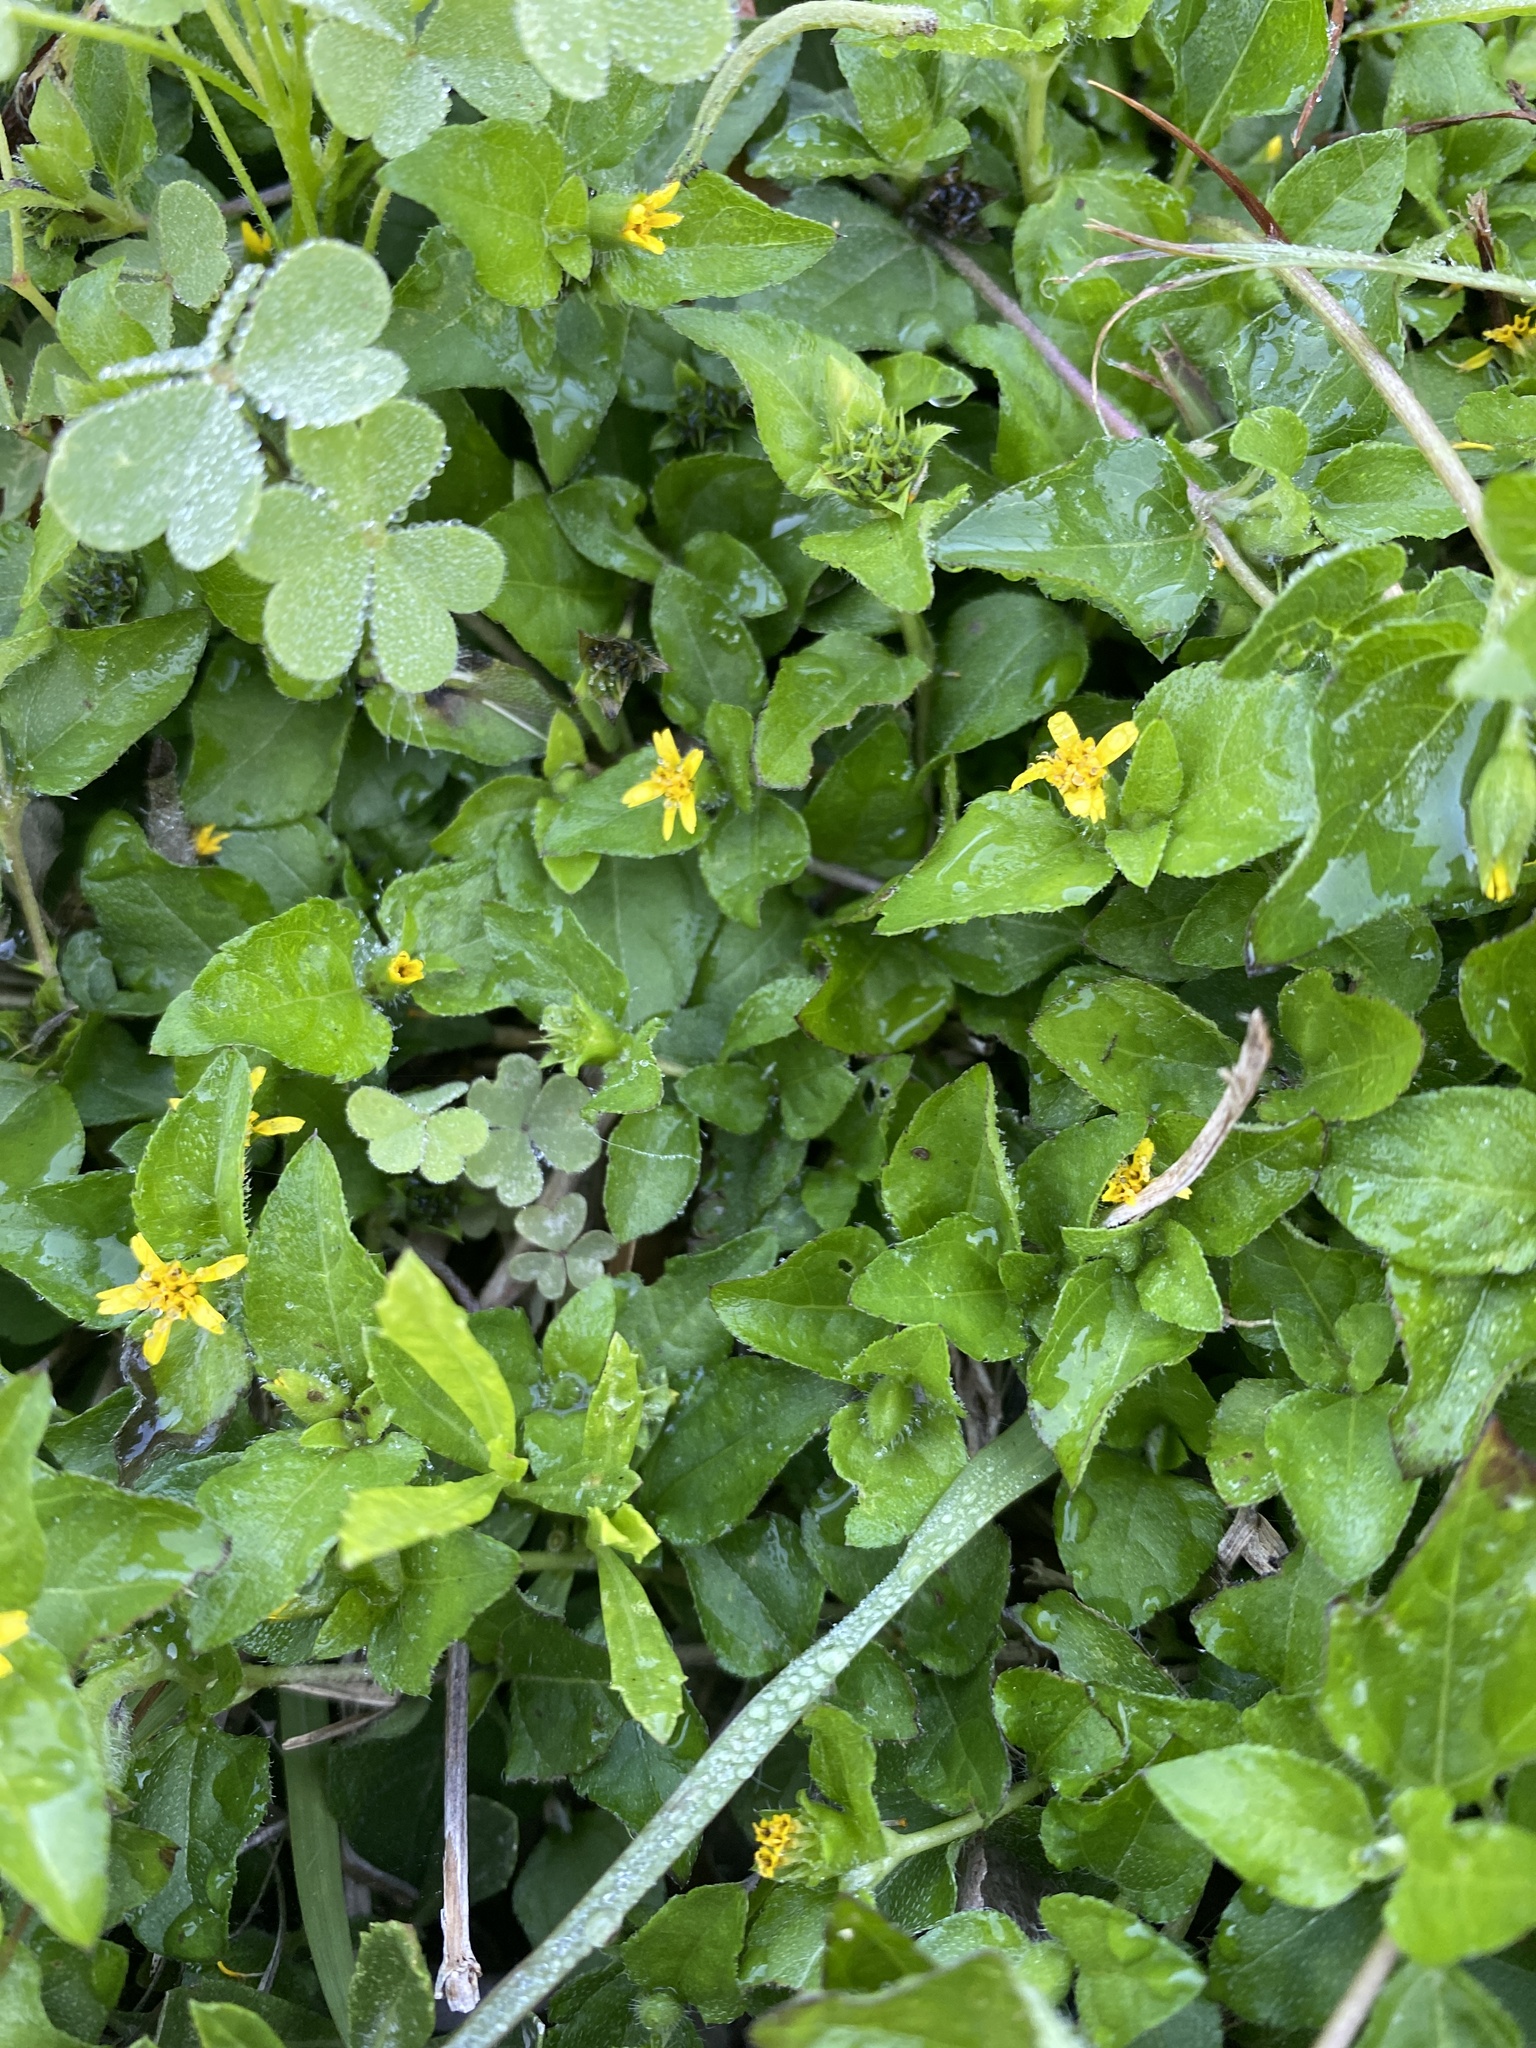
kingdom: Plantae
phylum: Tracheophyta
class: Magnoliopsida
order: Asterales
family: Asteraceae
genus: Calyptocarpus
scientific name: Calyptocarpus vialis
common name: Straggler daisy
